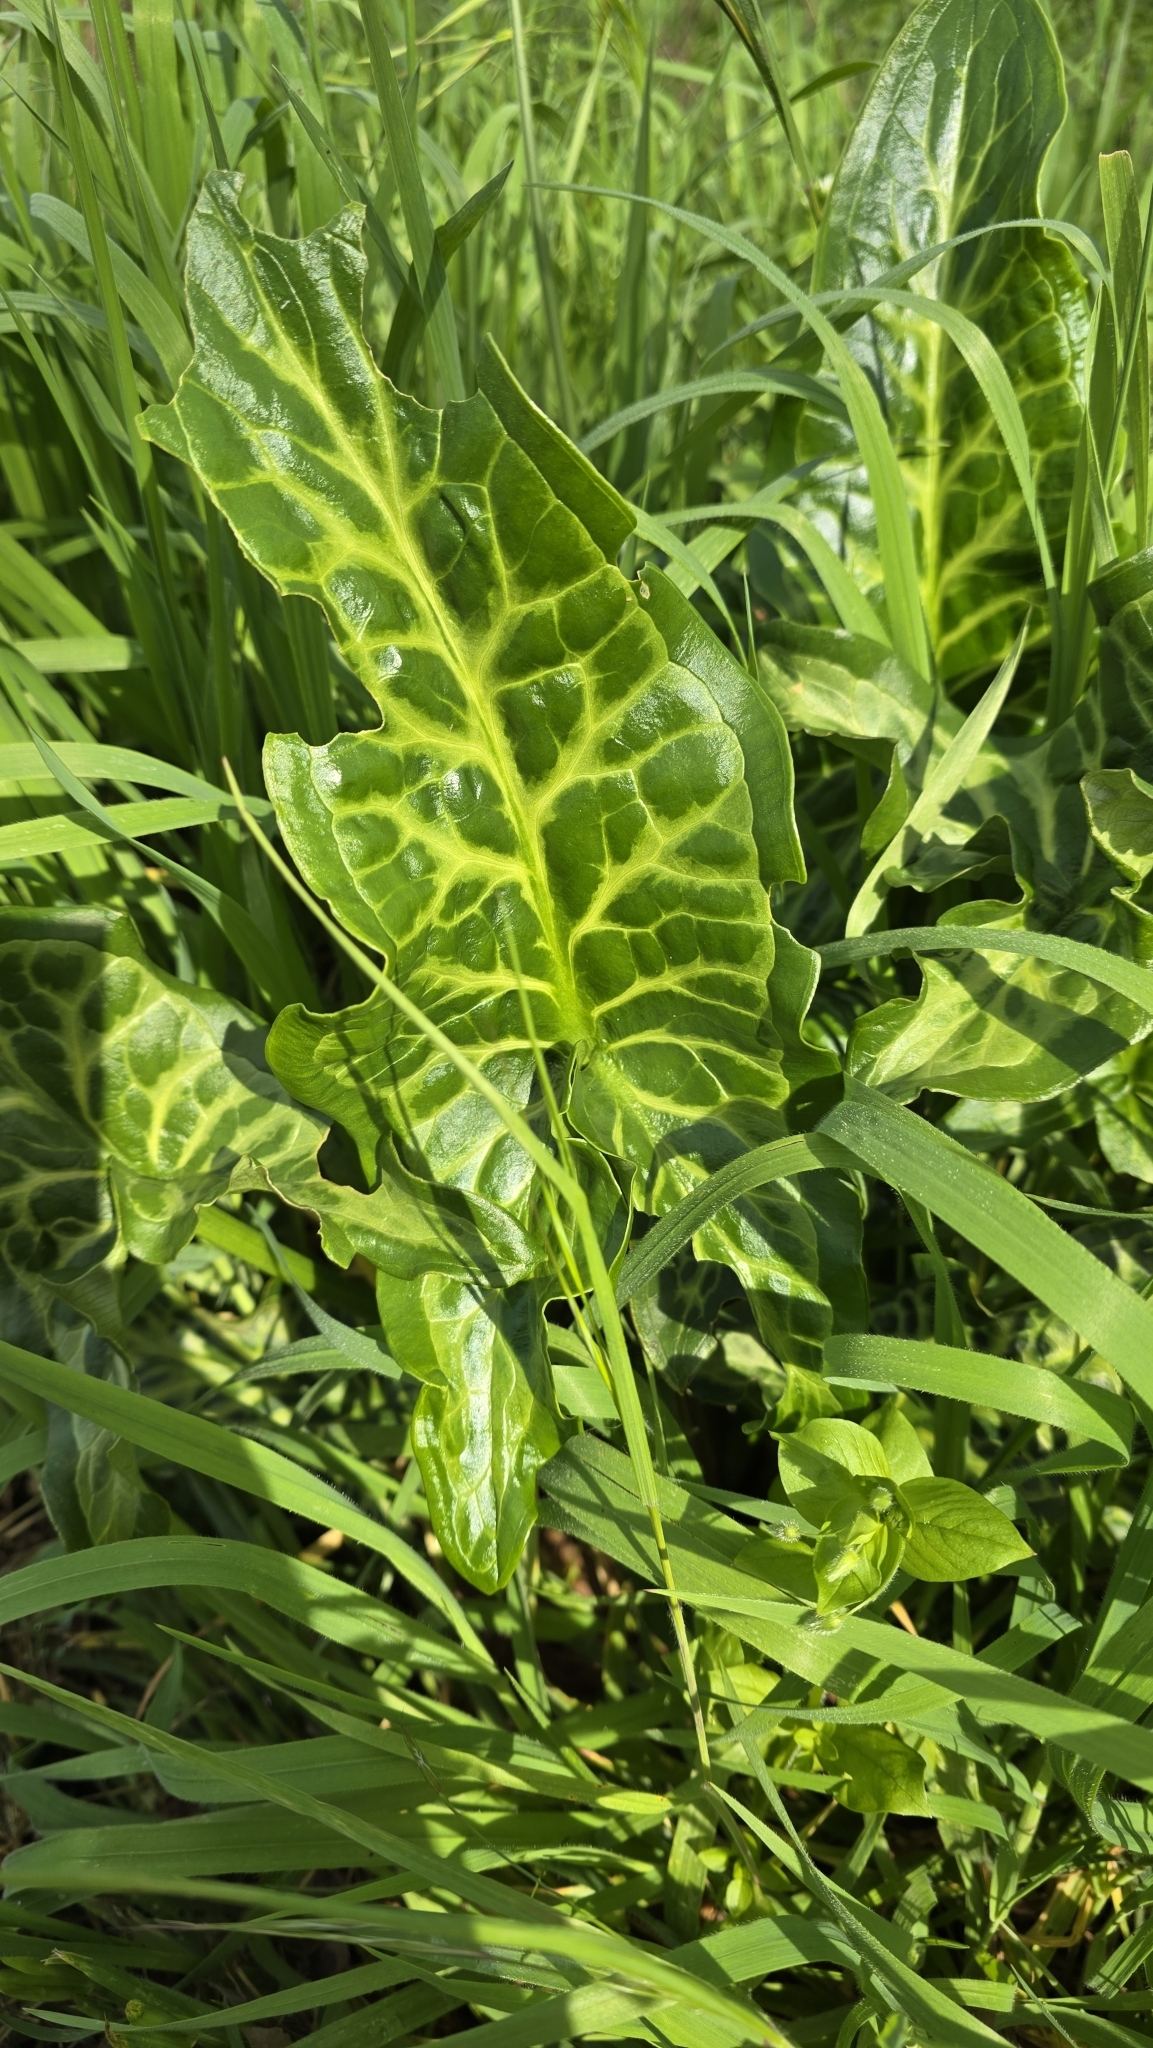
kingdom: Plantae
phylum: Tracheophyta
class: Liliopsida
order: Alismatales
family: Araceae
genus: Arum
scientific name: Arum italicum
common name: Italian lords-and-ladies
